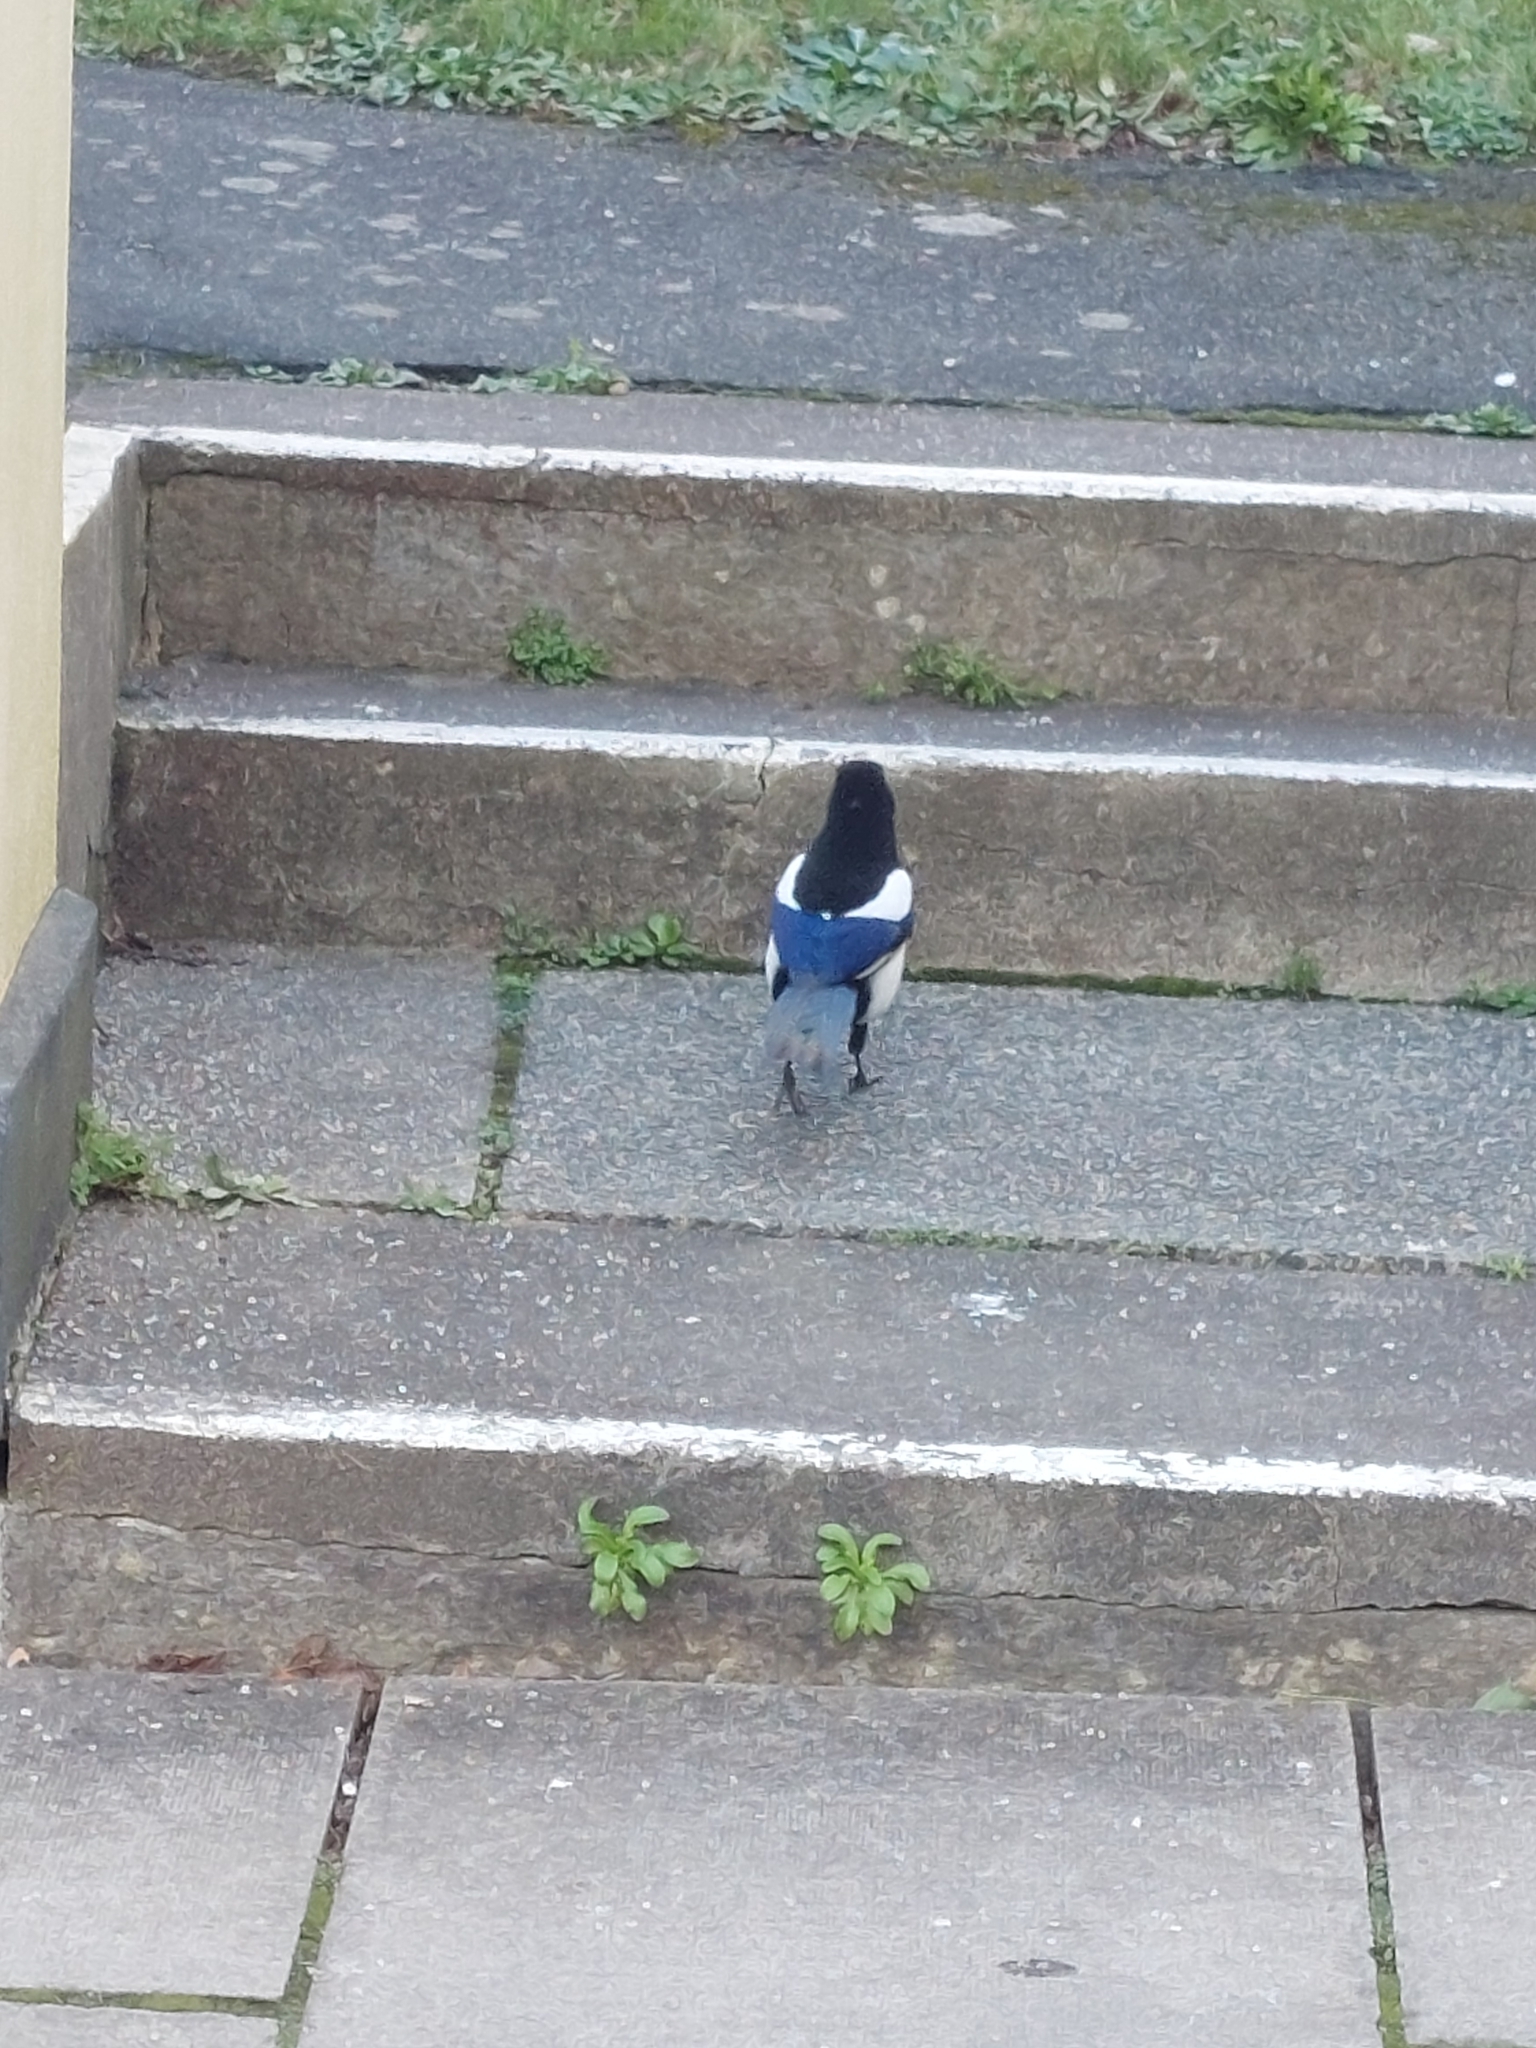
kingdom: Animalia
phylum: Chordata
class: Aves
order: Passeriformes
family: Corvidae
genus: Pica
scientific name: Pica pica
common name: Eurasian magpie
